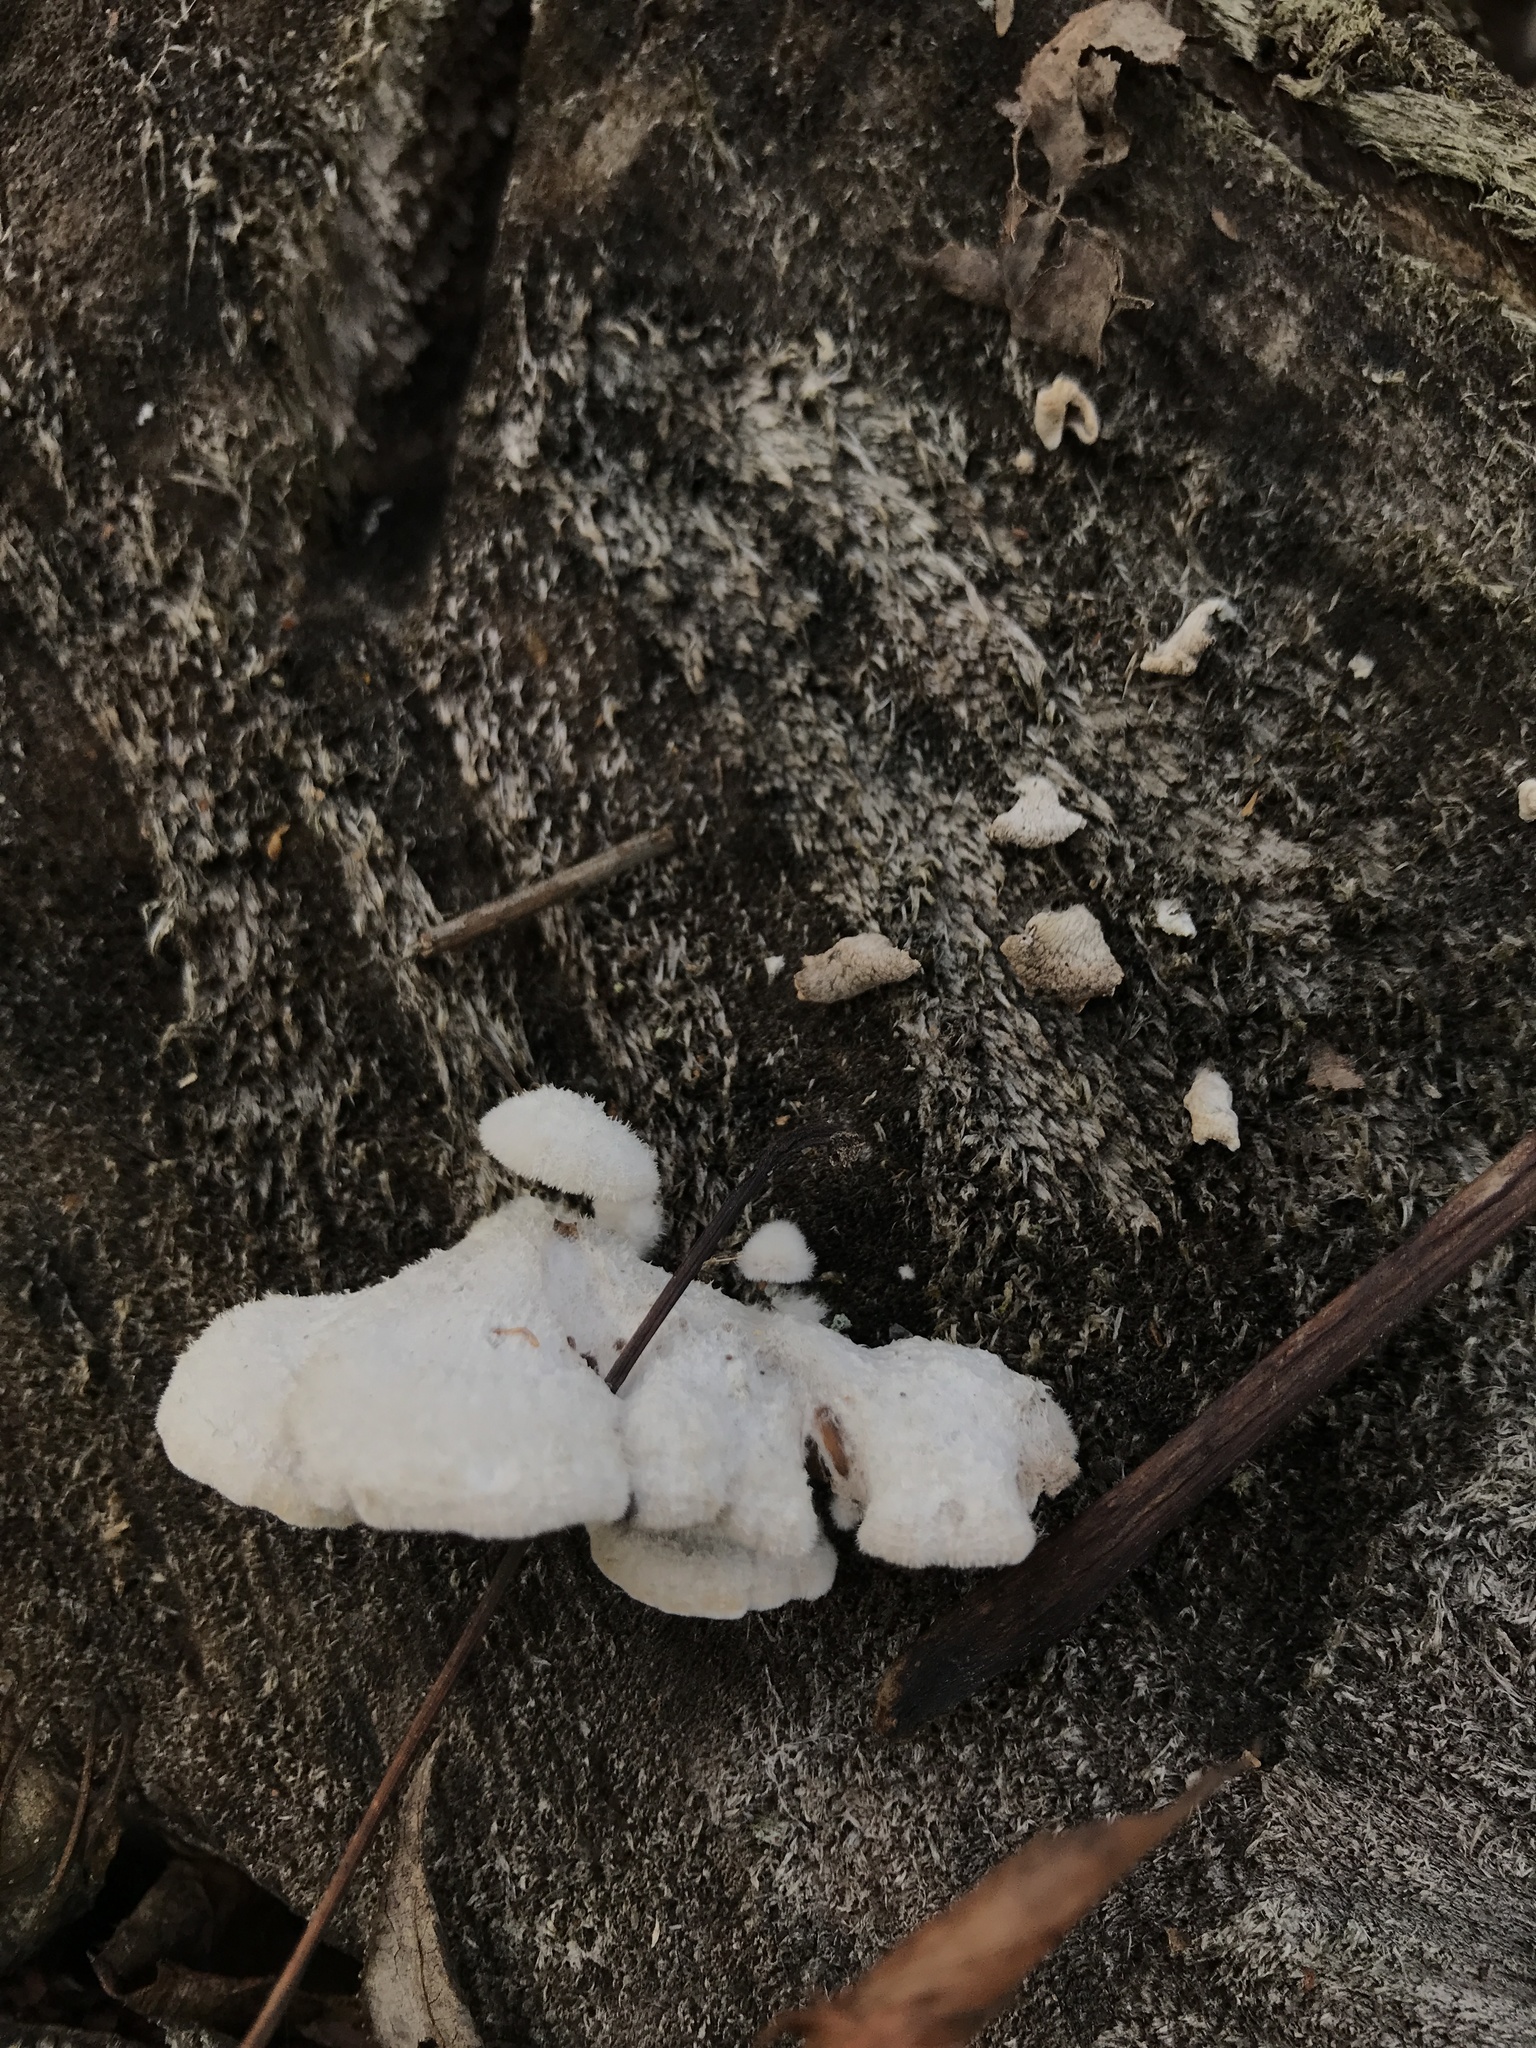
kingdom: Fungi
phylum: Basidiomycota
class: Agaricomycetes
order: Agaricales
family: Schizophyllaceae
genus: Schizophyllum
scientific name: Schizophyllum commune
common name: Common porecrust
